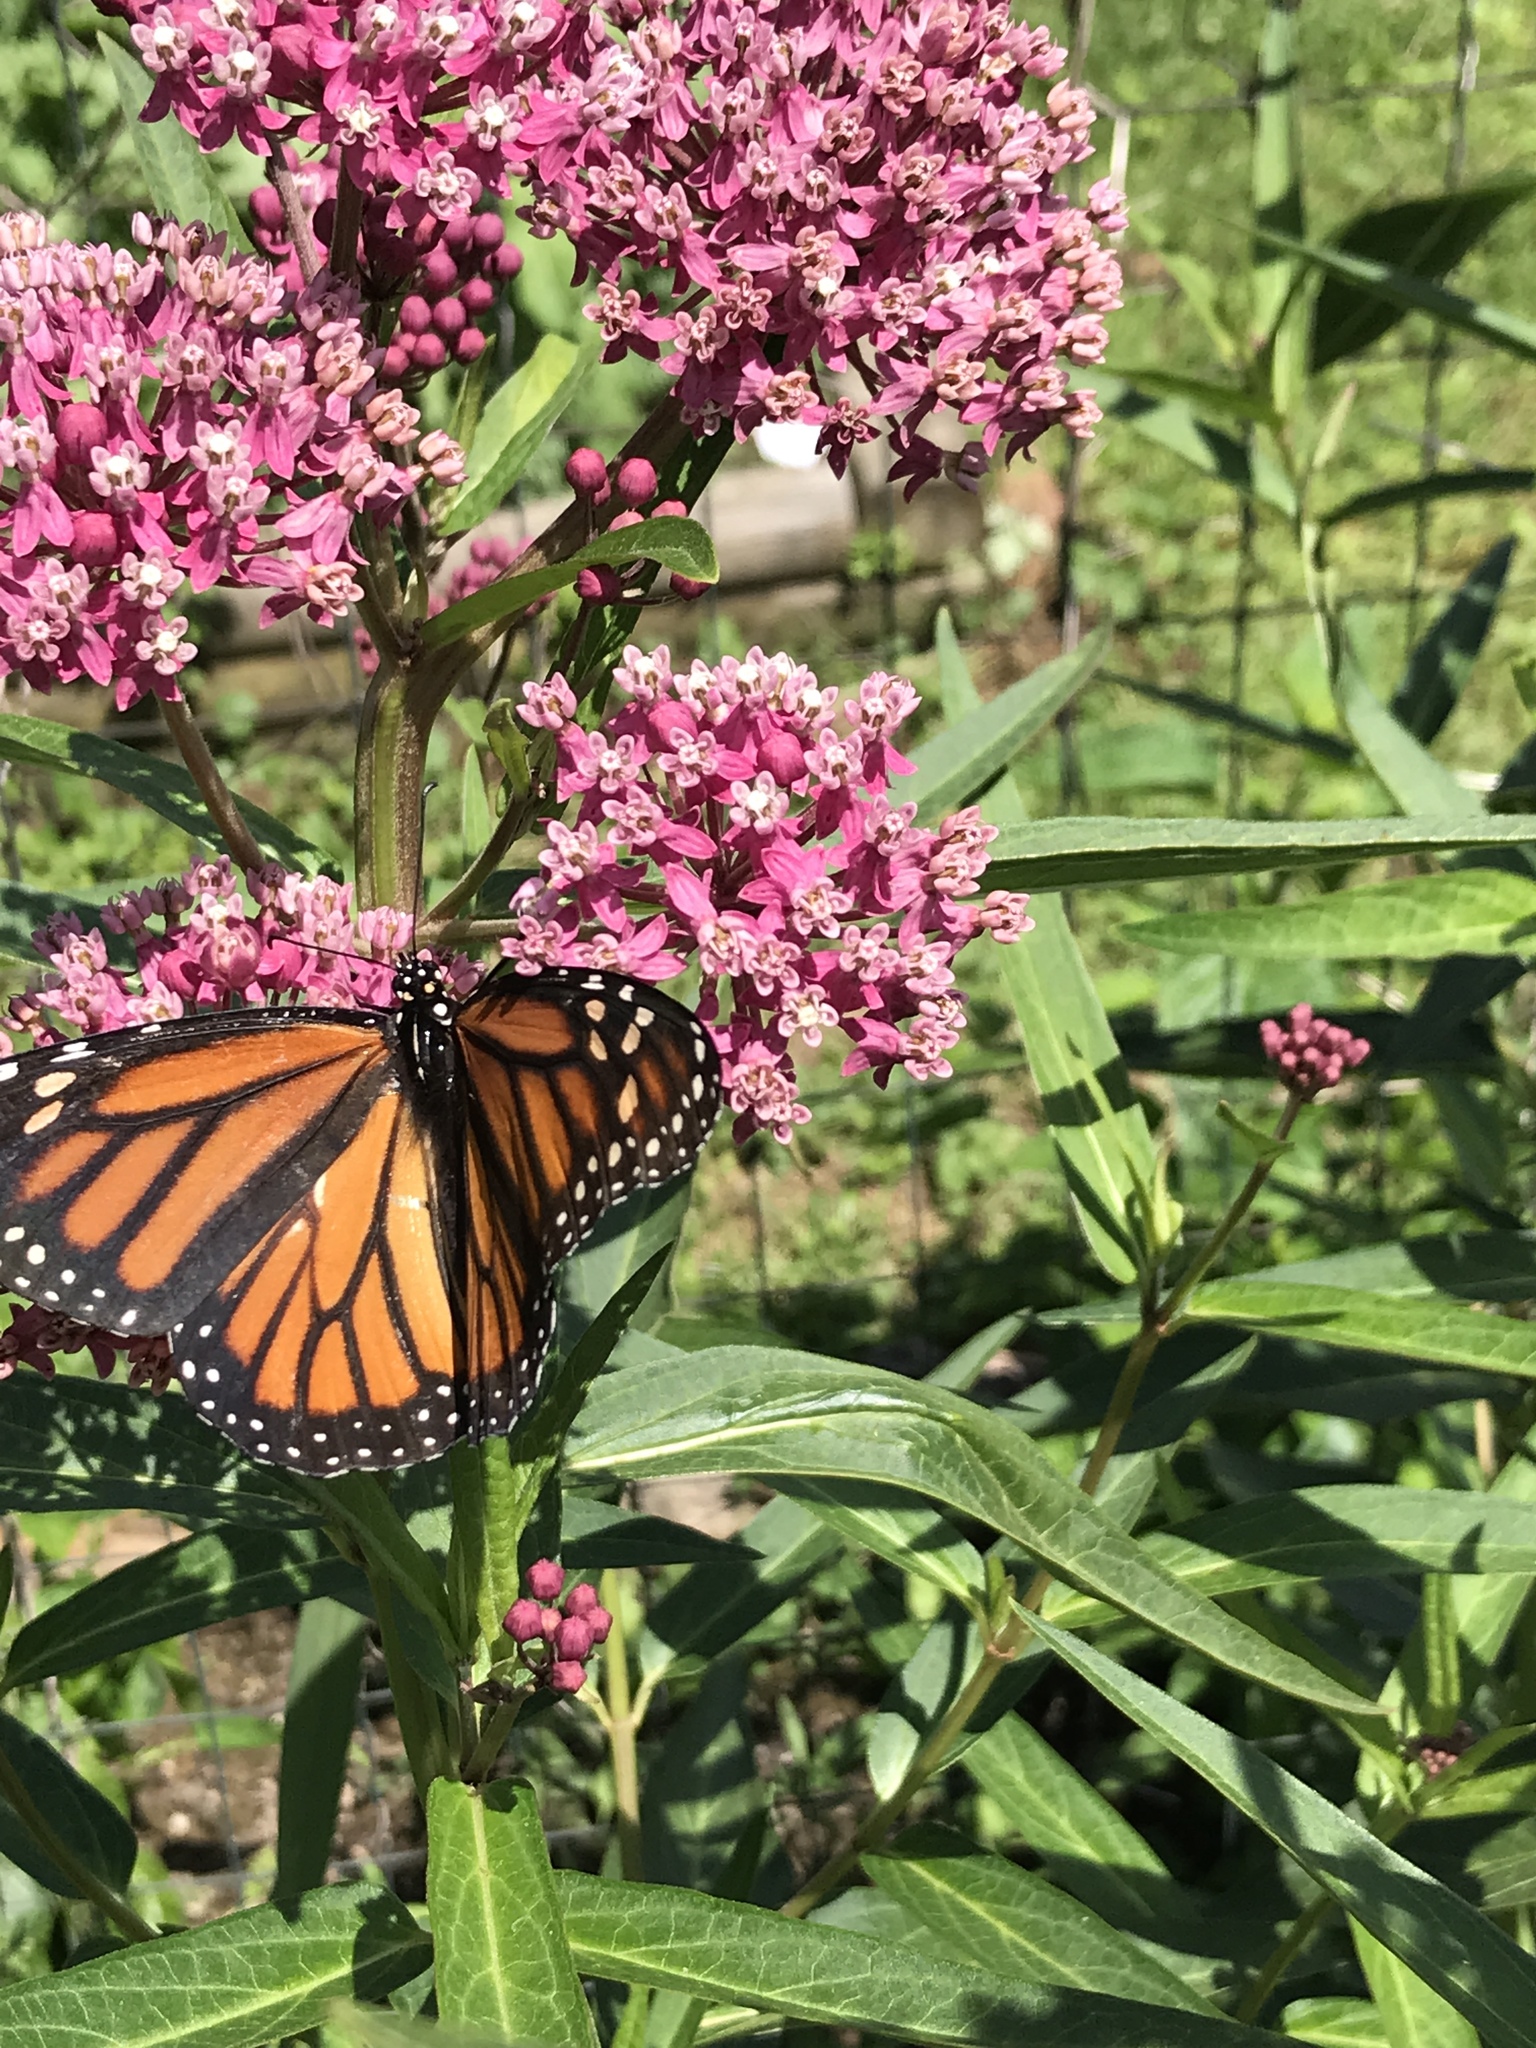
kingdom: Animalia
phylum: Arthropoda
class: Insecta
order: Lepidoptera
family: Nymphalidae
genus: Danaus
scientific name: Danaus plexippus
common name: Monarch
